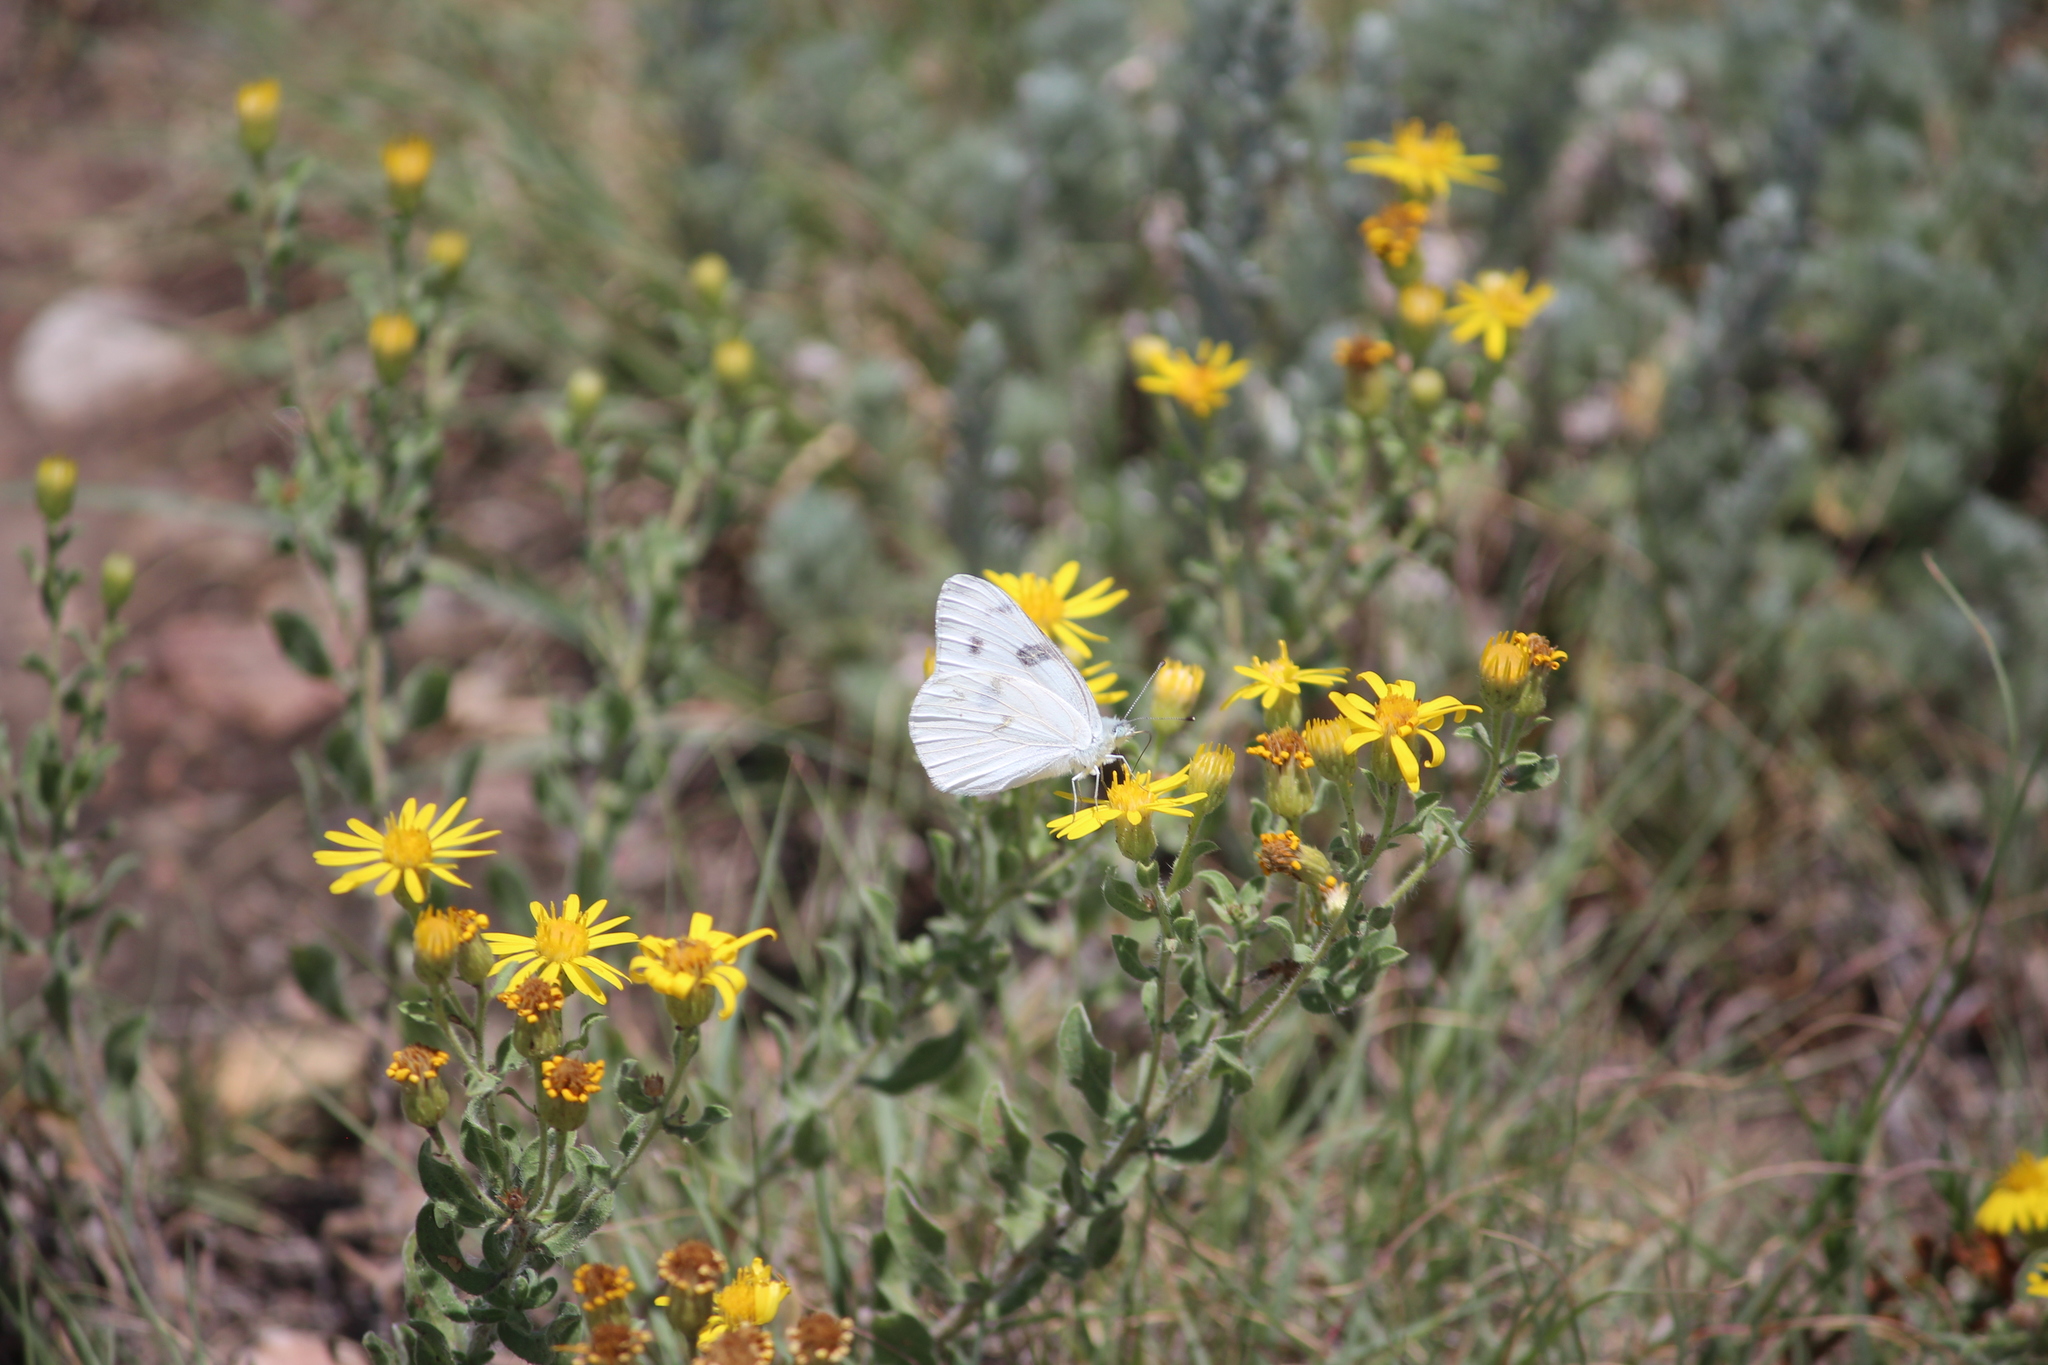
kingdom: Animalia
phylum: Arthropoda
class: Insecta
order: Lepidoptera
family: Pieridae
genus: Pontia
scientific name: Pontia protodice
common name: Checkered white
